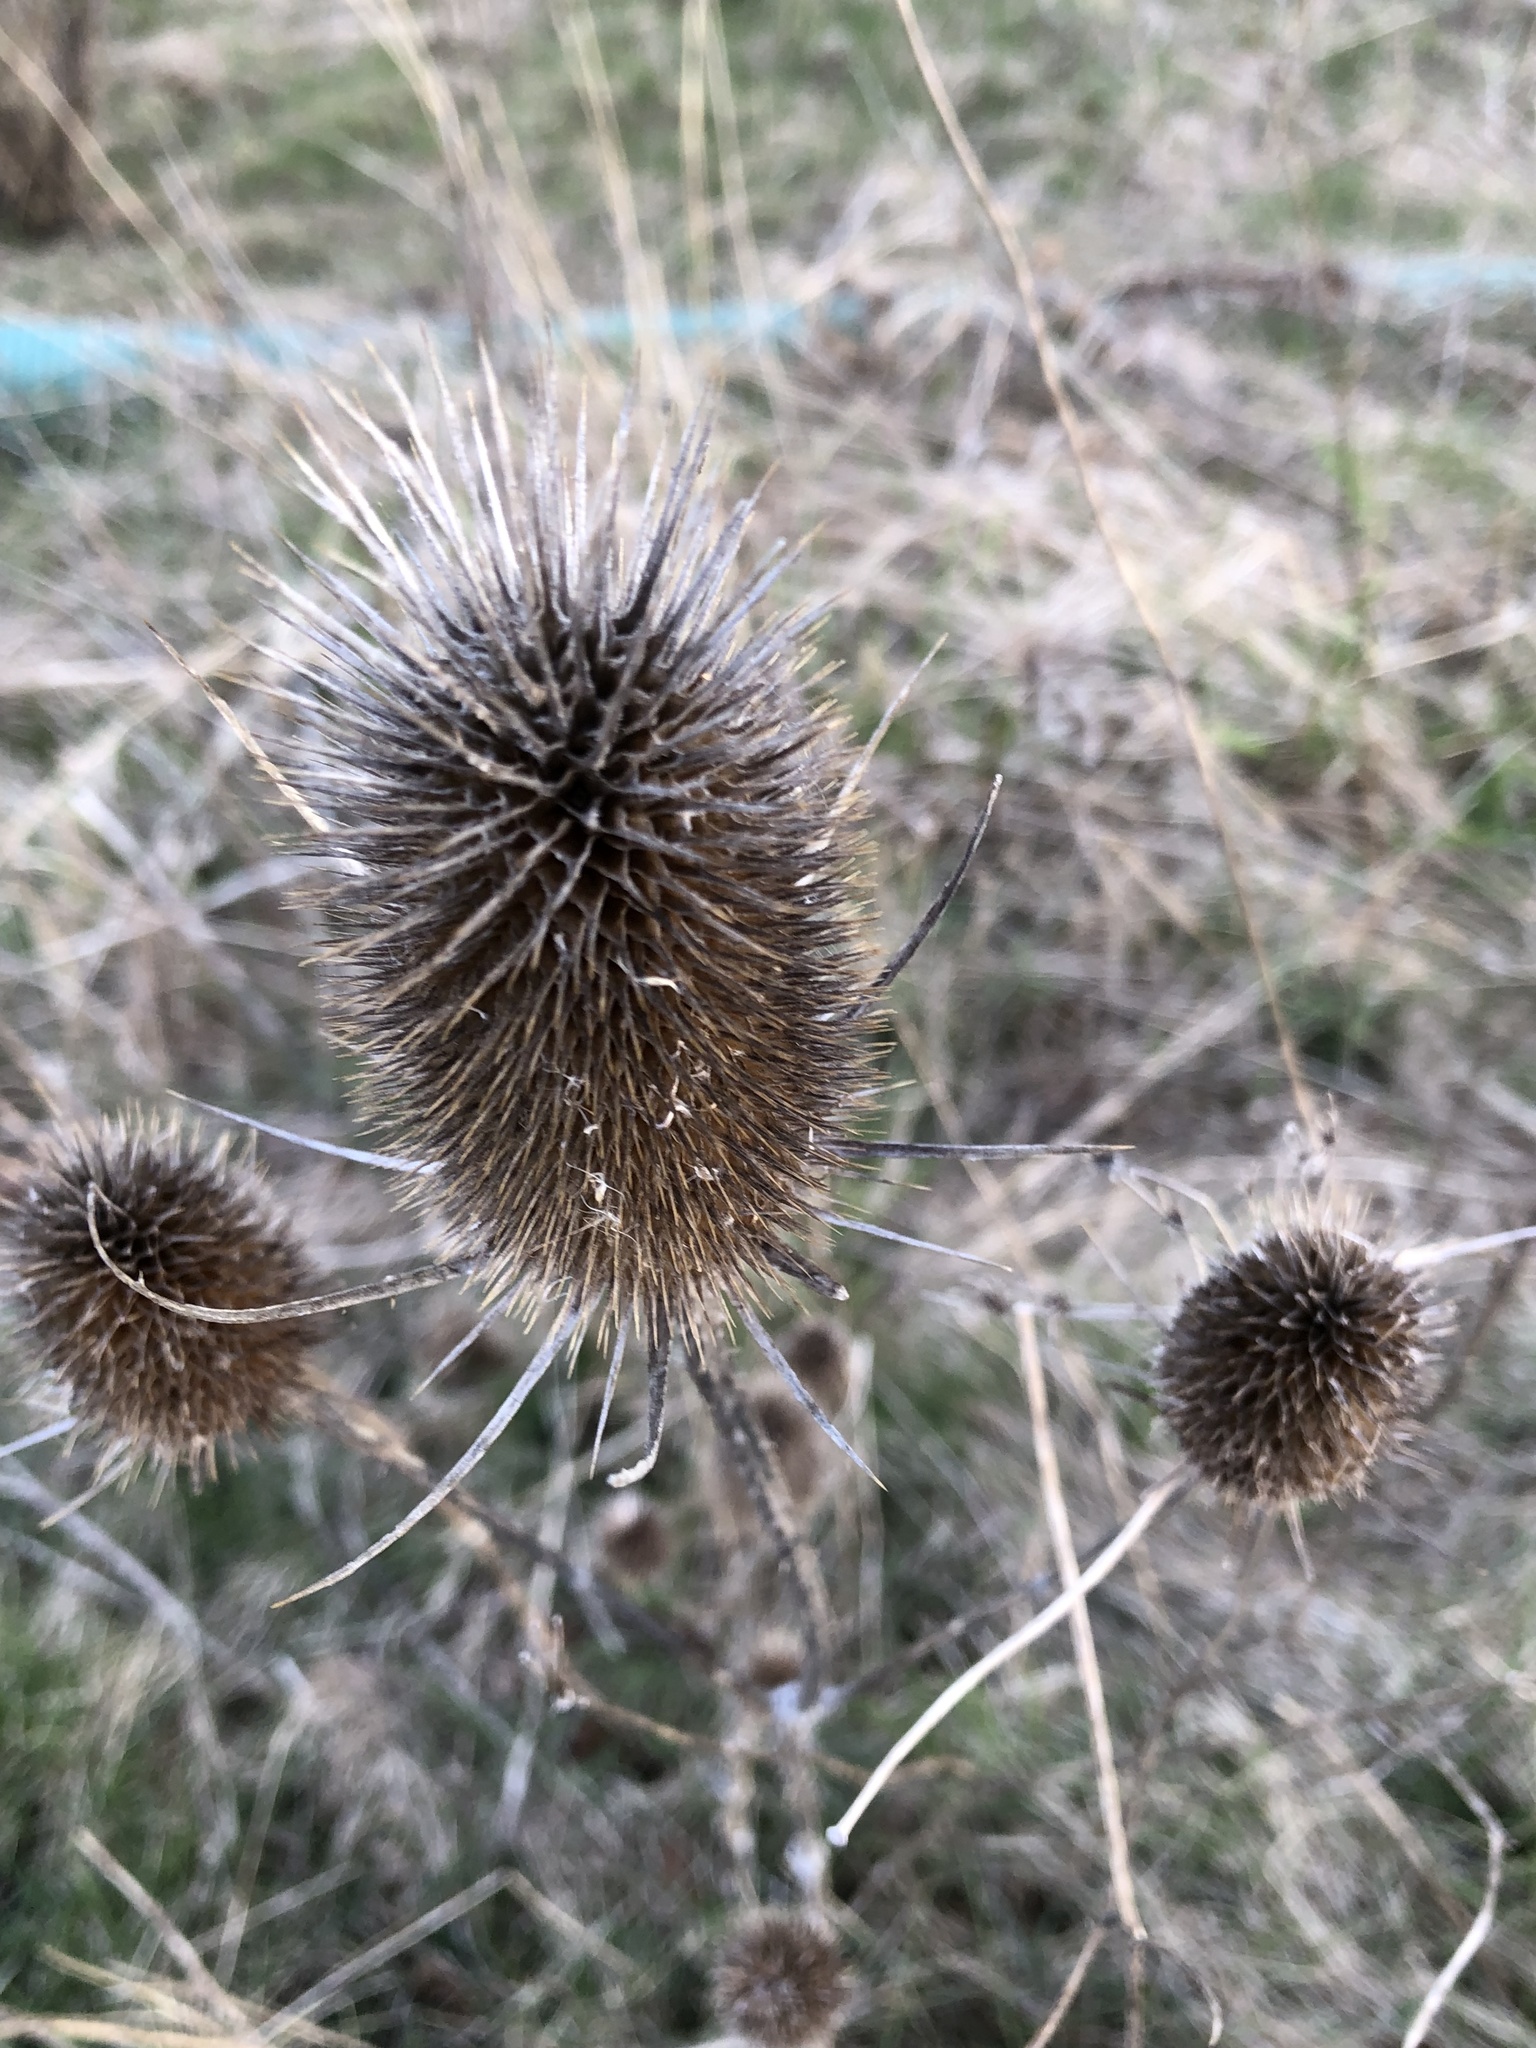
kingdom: Plantae
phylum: Tracheophyta
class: Magnoliopsida
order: Dipsacales
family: Caprifoliaceae
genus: Dipsacus
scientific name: Dipsacus fullonum
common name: Teasel
